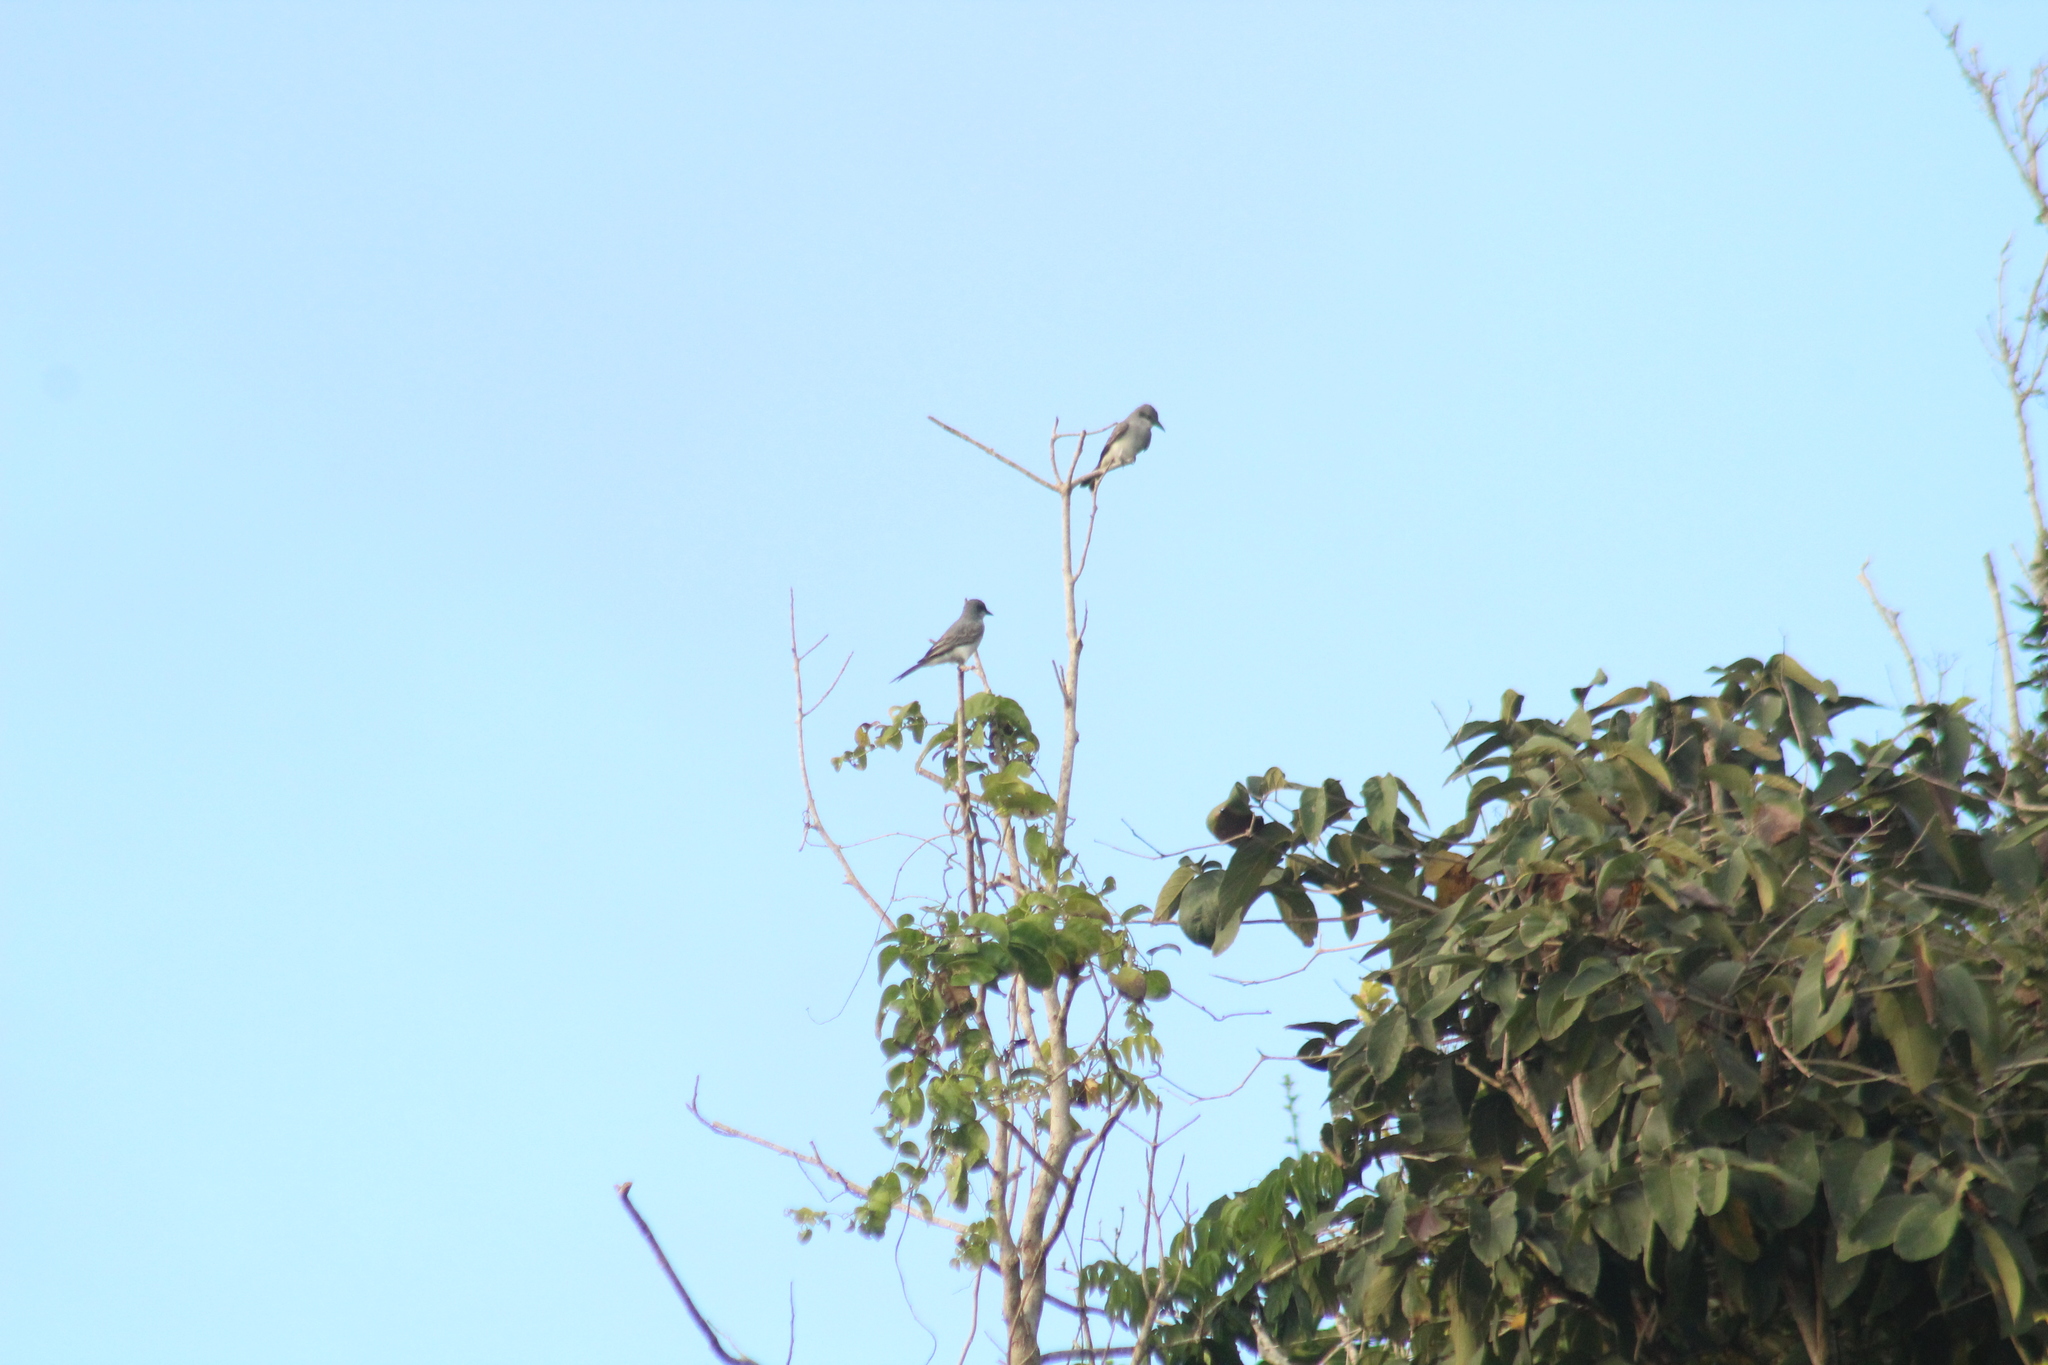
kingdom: Animalia
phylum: Chordata
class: Aves
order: Passeriformes
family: Tyrannidae
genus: Tyrannus
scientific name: Tyrannus dominicensis
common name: Gray kingbird
